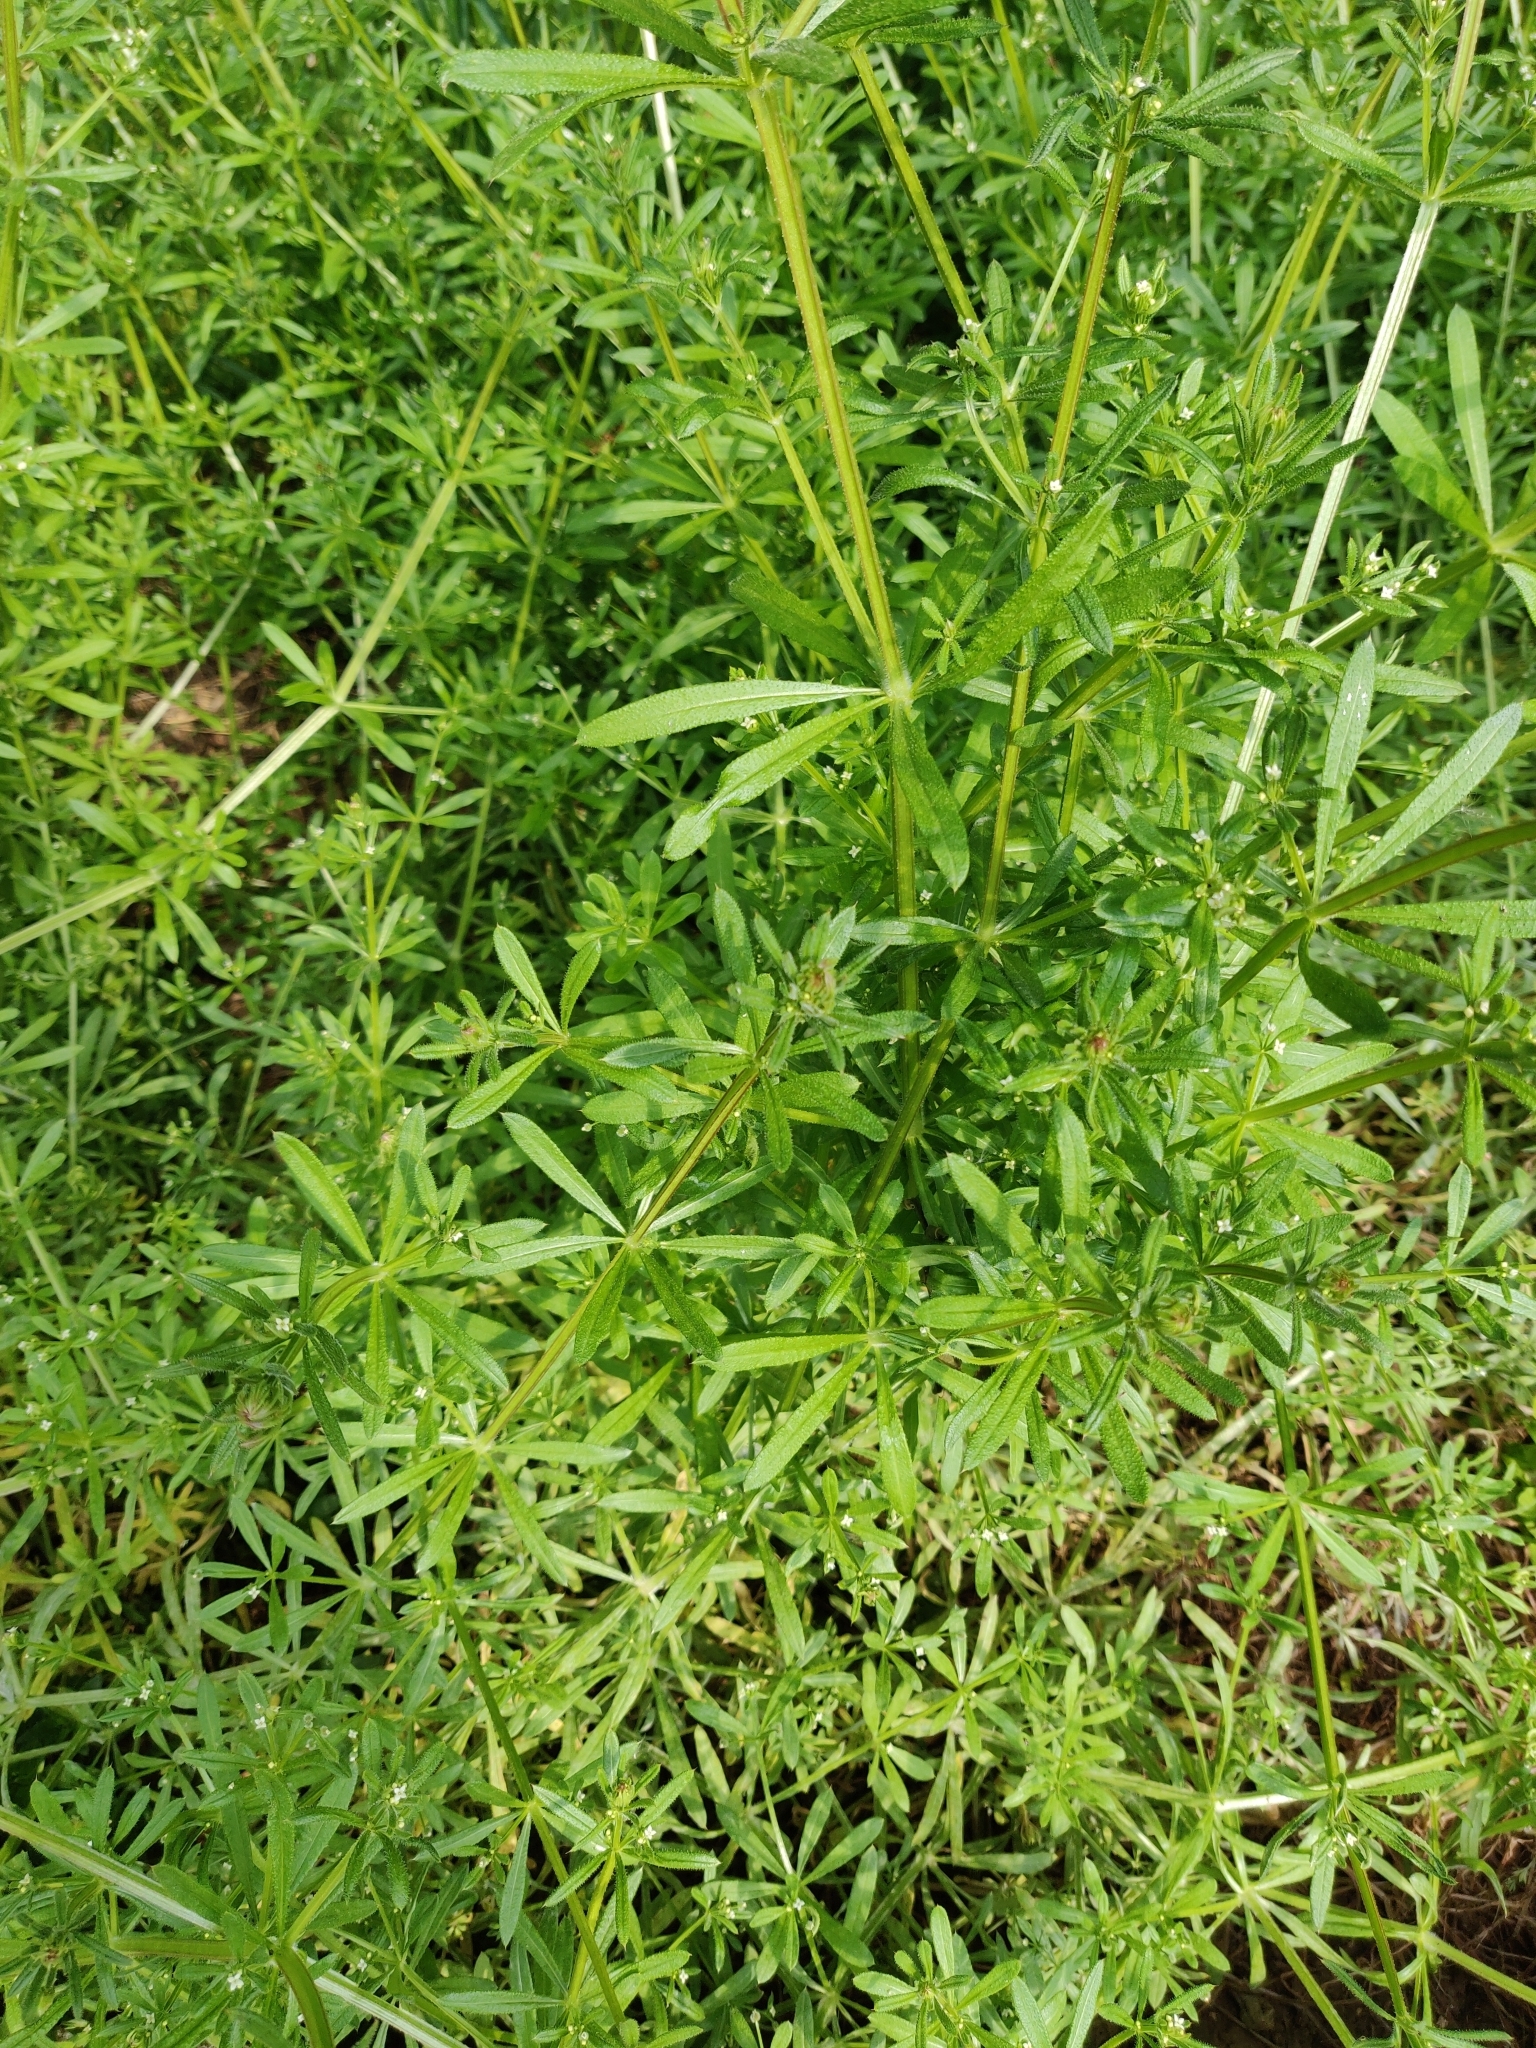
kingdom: Plantae
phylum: Tracheophyta
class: Magnoliopsida
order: Gentianales
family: Rubiaceae
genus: Galium
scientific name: Galium aparine
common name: Cleavers
